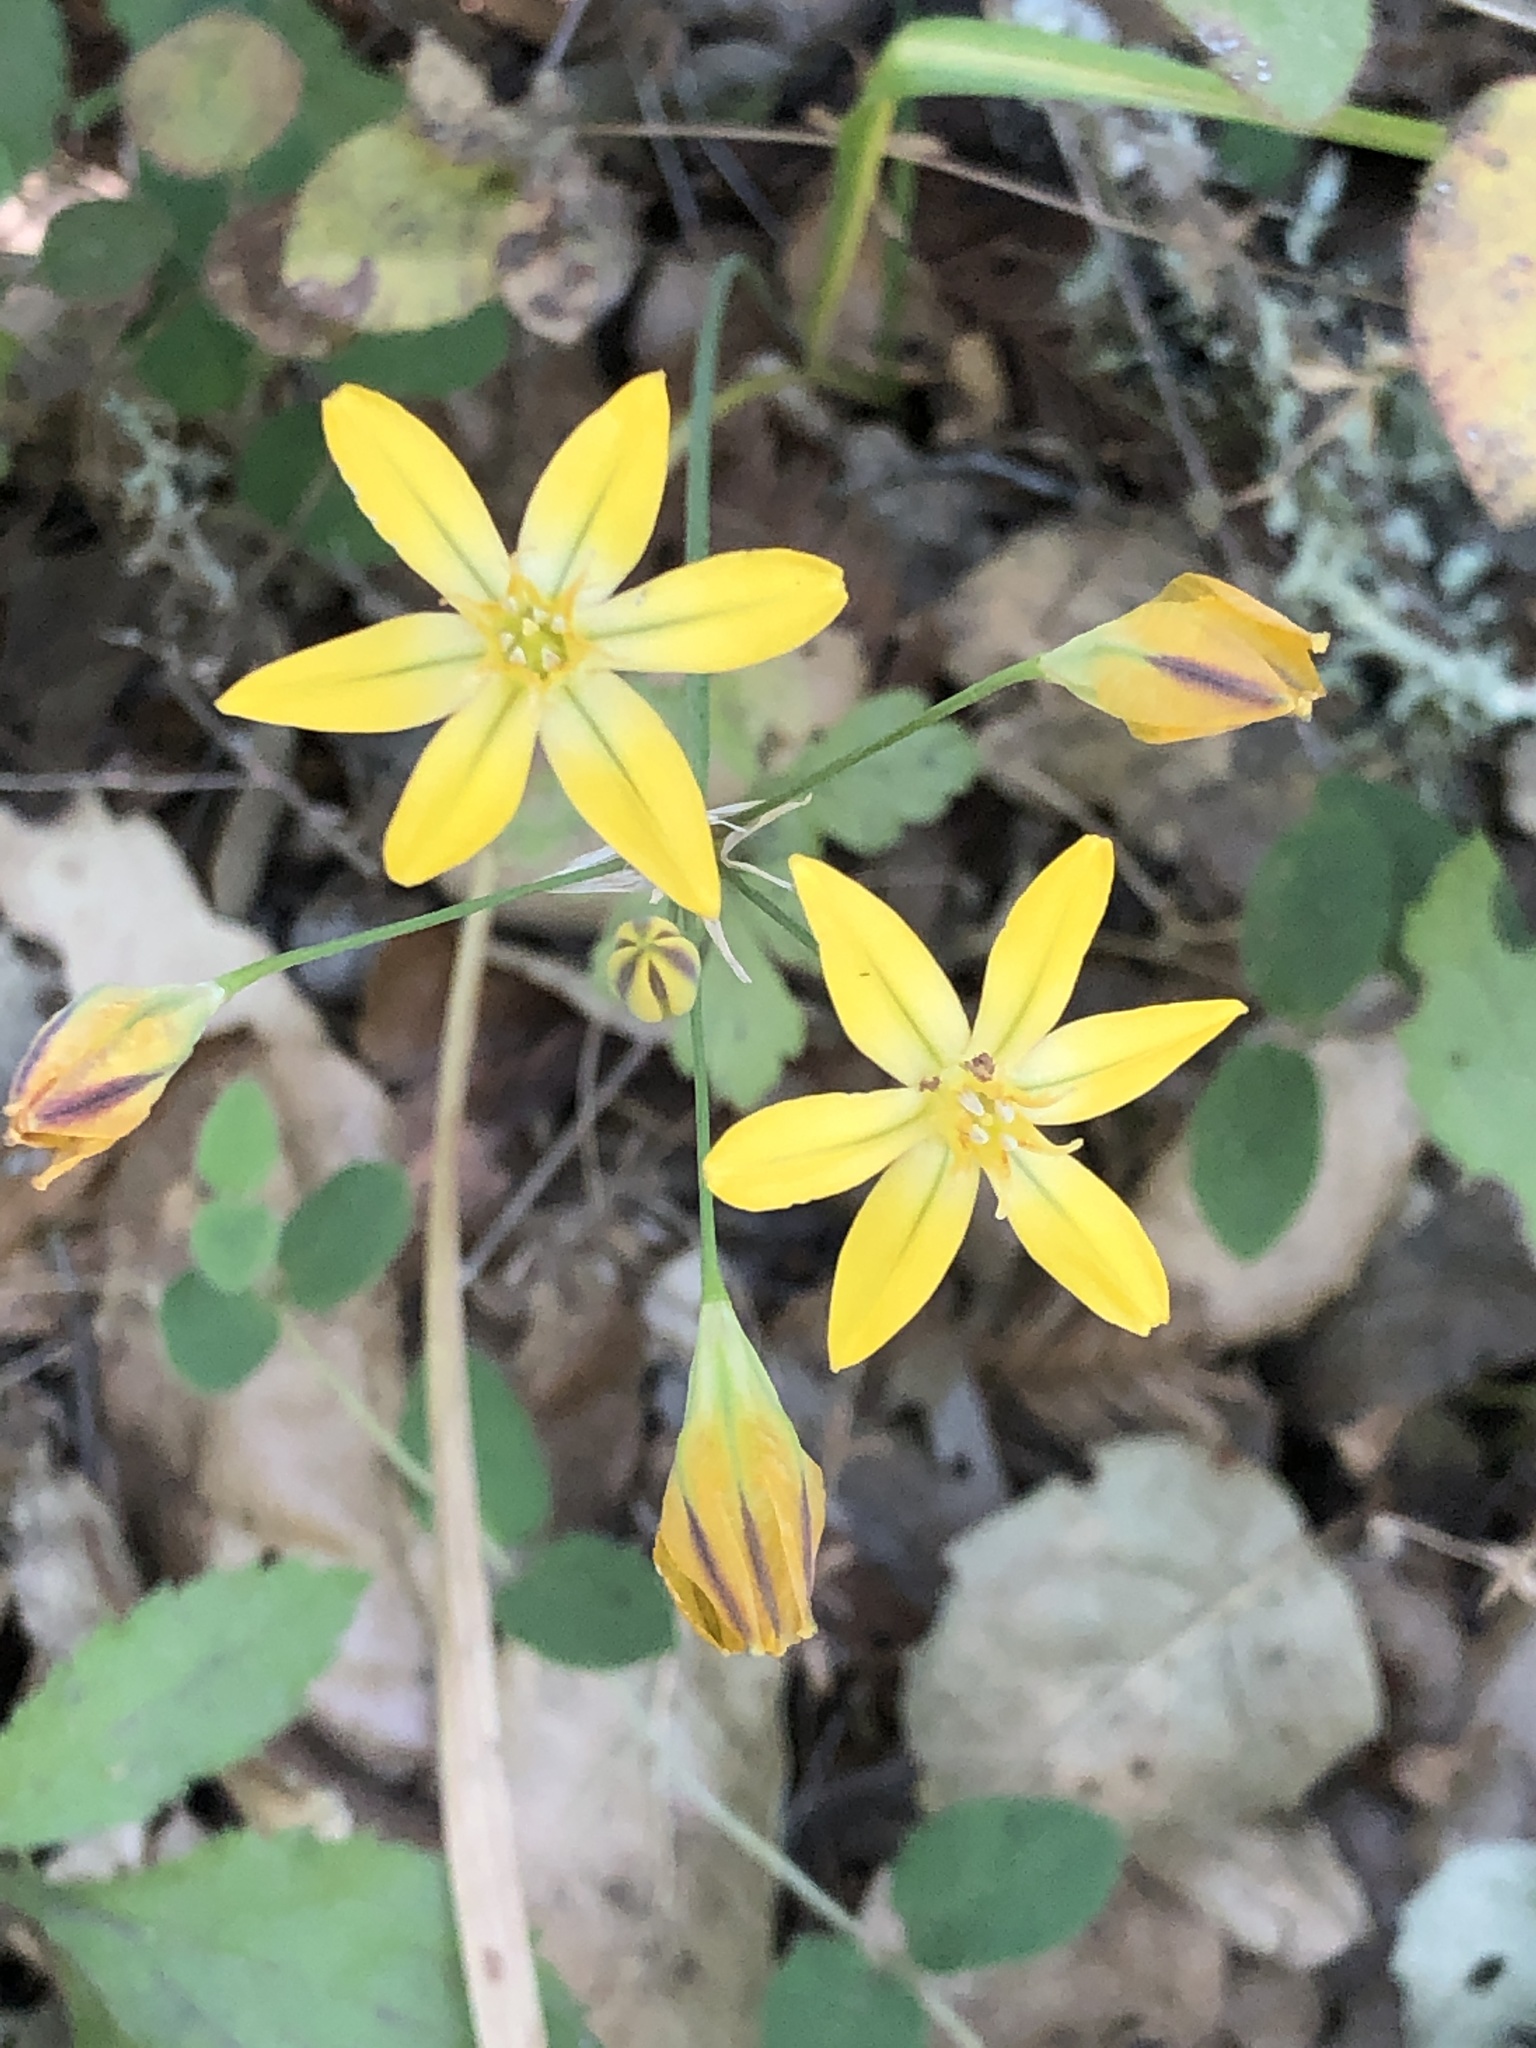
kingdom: Plantae
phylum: Tracheophyta
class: Liliopsida
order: Asparagales
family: Asparagaceae
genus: Triteleia
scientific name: Triteleia ixioides
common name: Yellow-brodiaea
